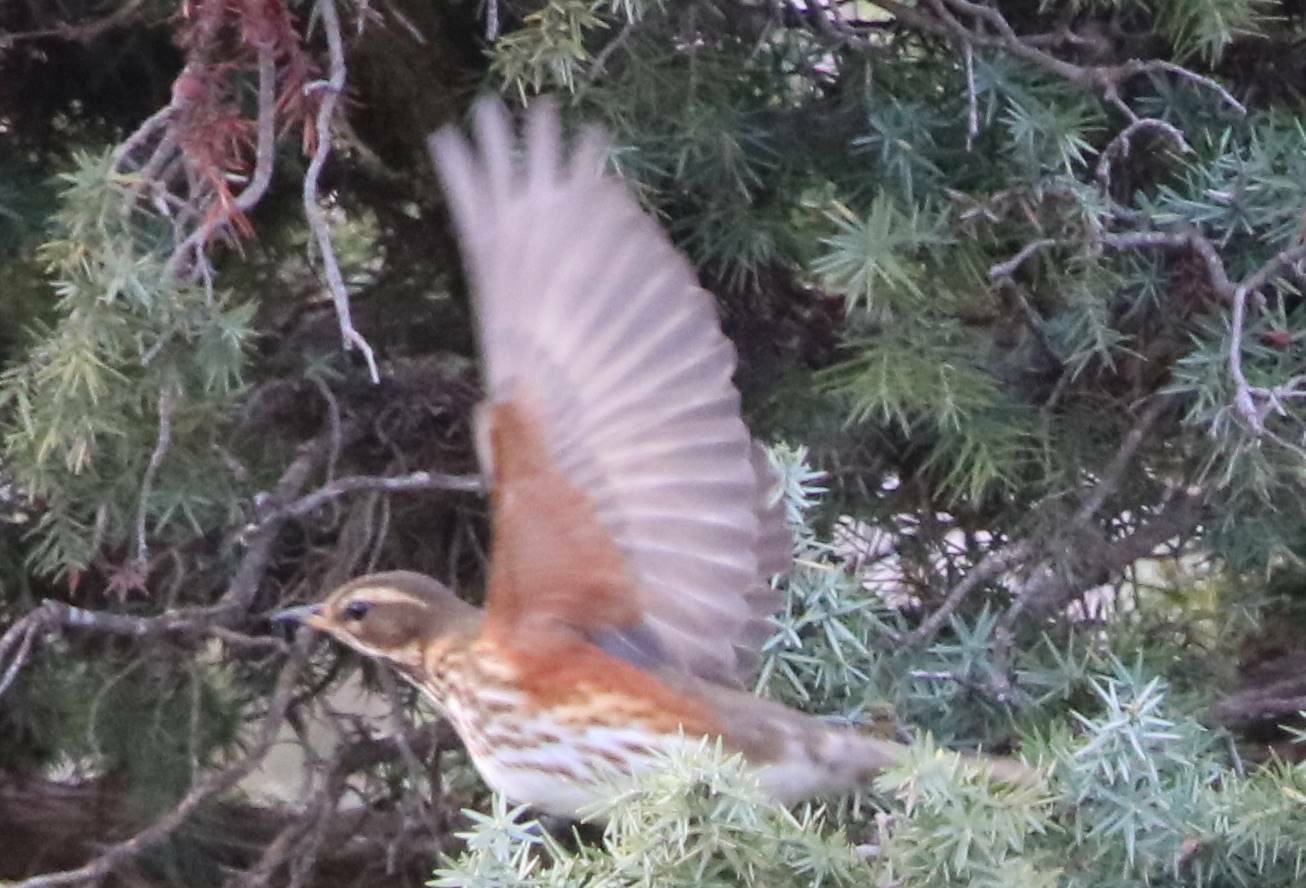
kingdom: Animalia
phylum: Chordata
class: Aves
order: Passeriformes
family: Turdidae
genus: Turdus
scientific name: Turdus iliacus
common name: Redwing
